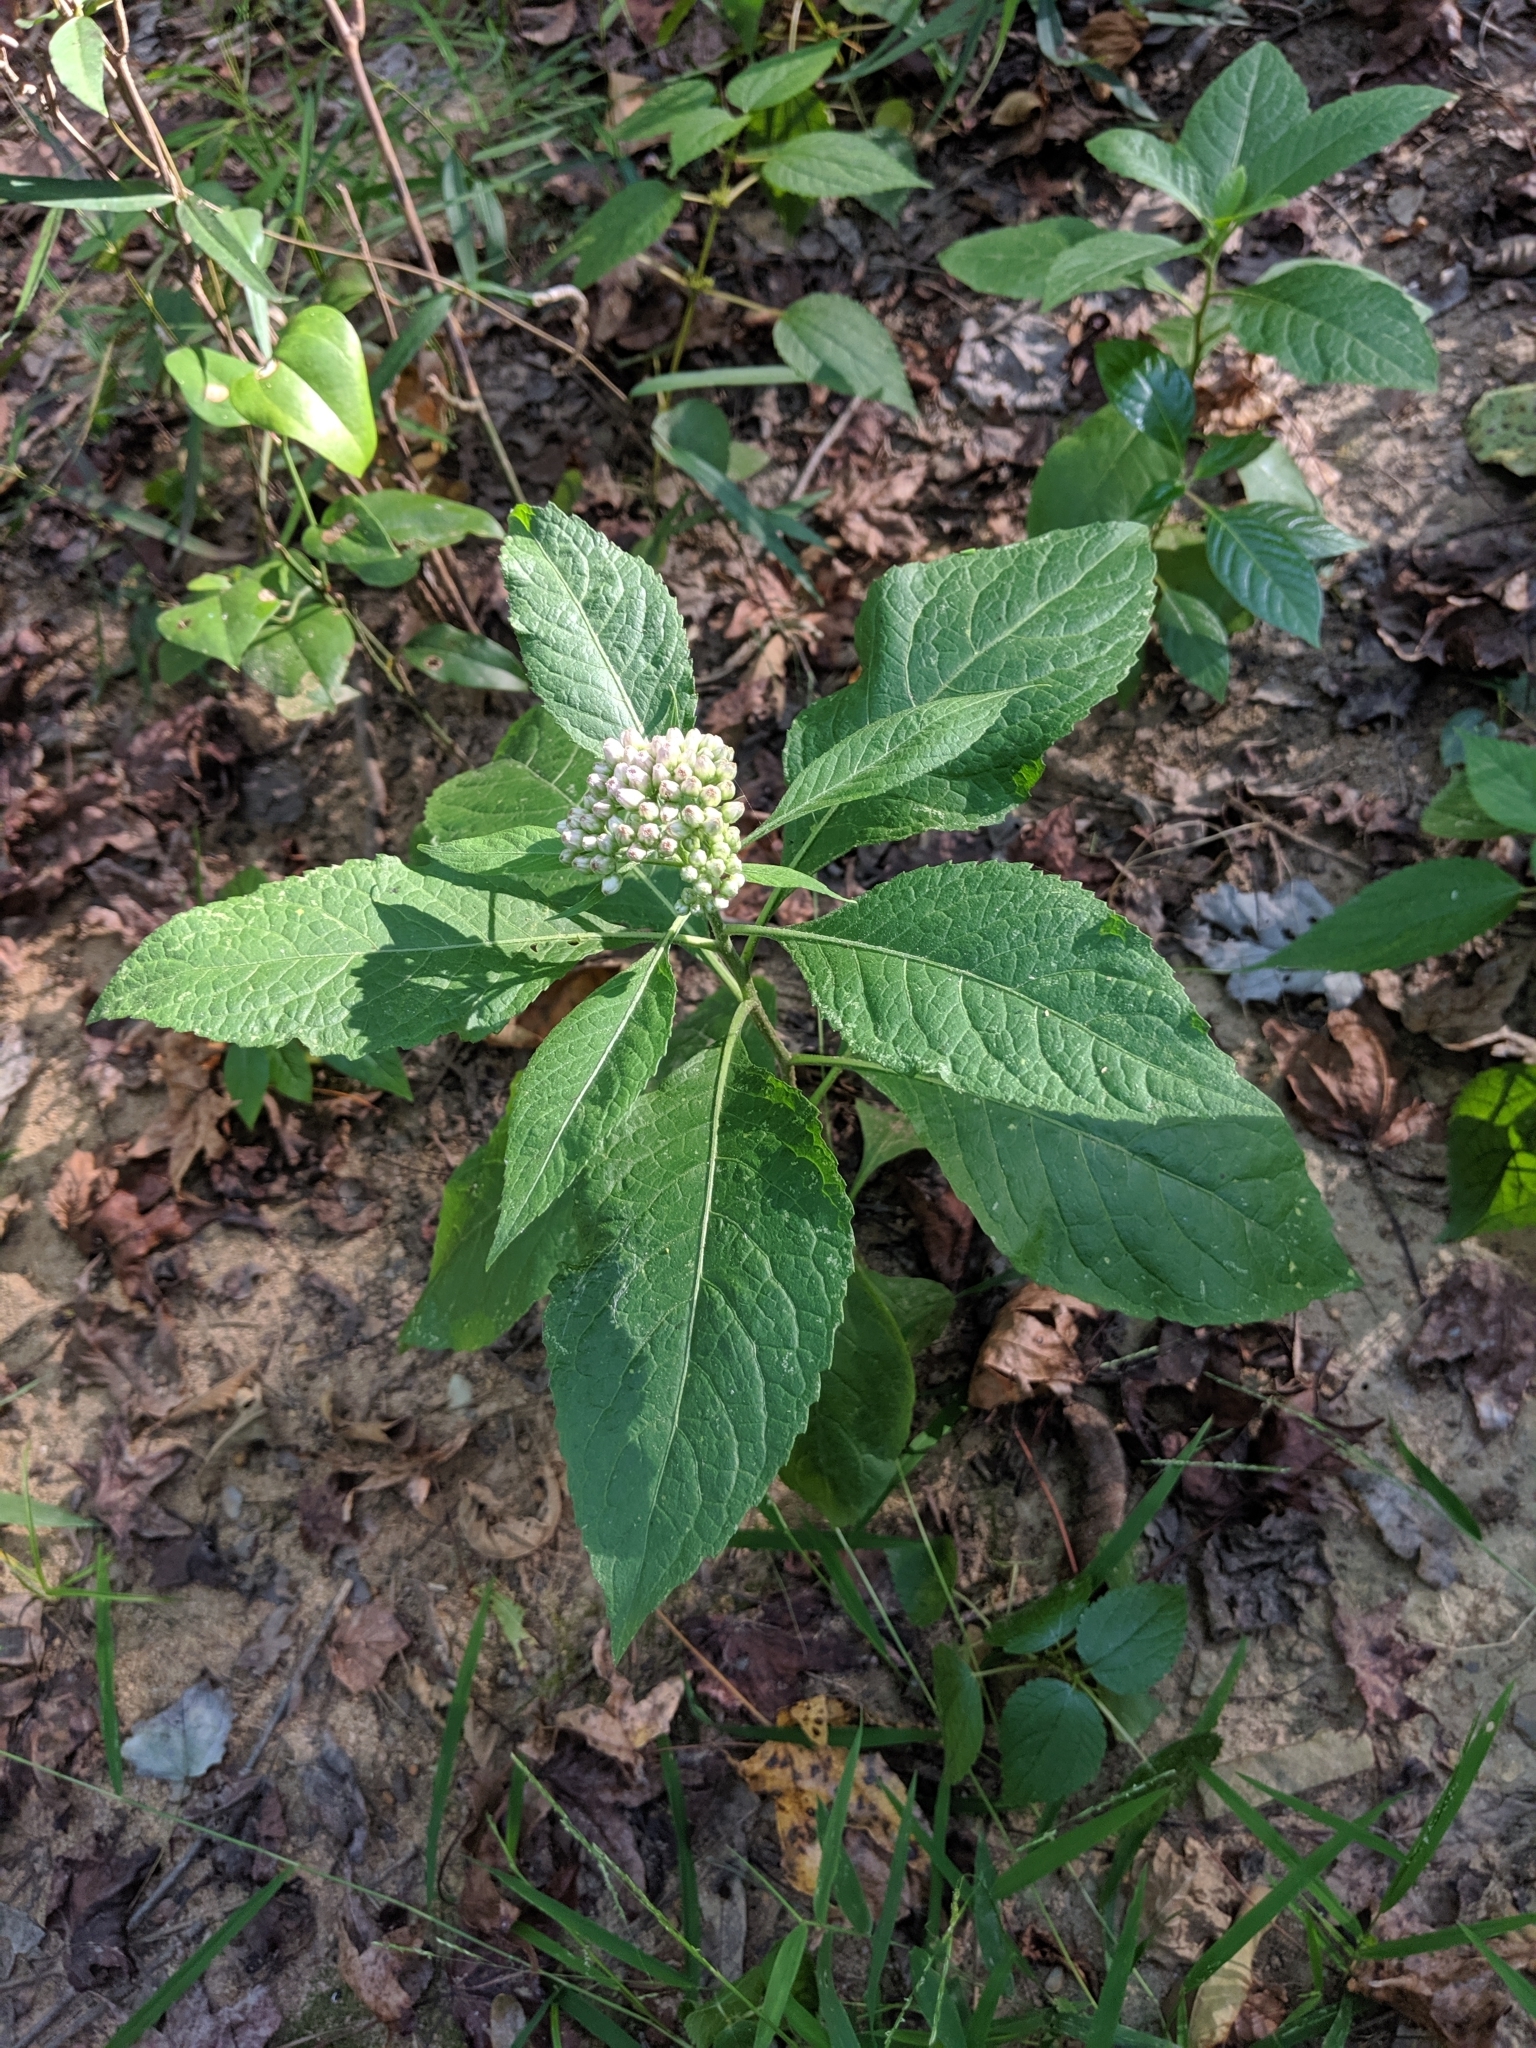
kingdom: Plantae
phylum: Tracheophyta
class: Magnoliopsida
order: Asterales
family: Asteraceae
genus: Pluchea
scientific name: Pluchea camphorata
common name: Camphor pluchea
